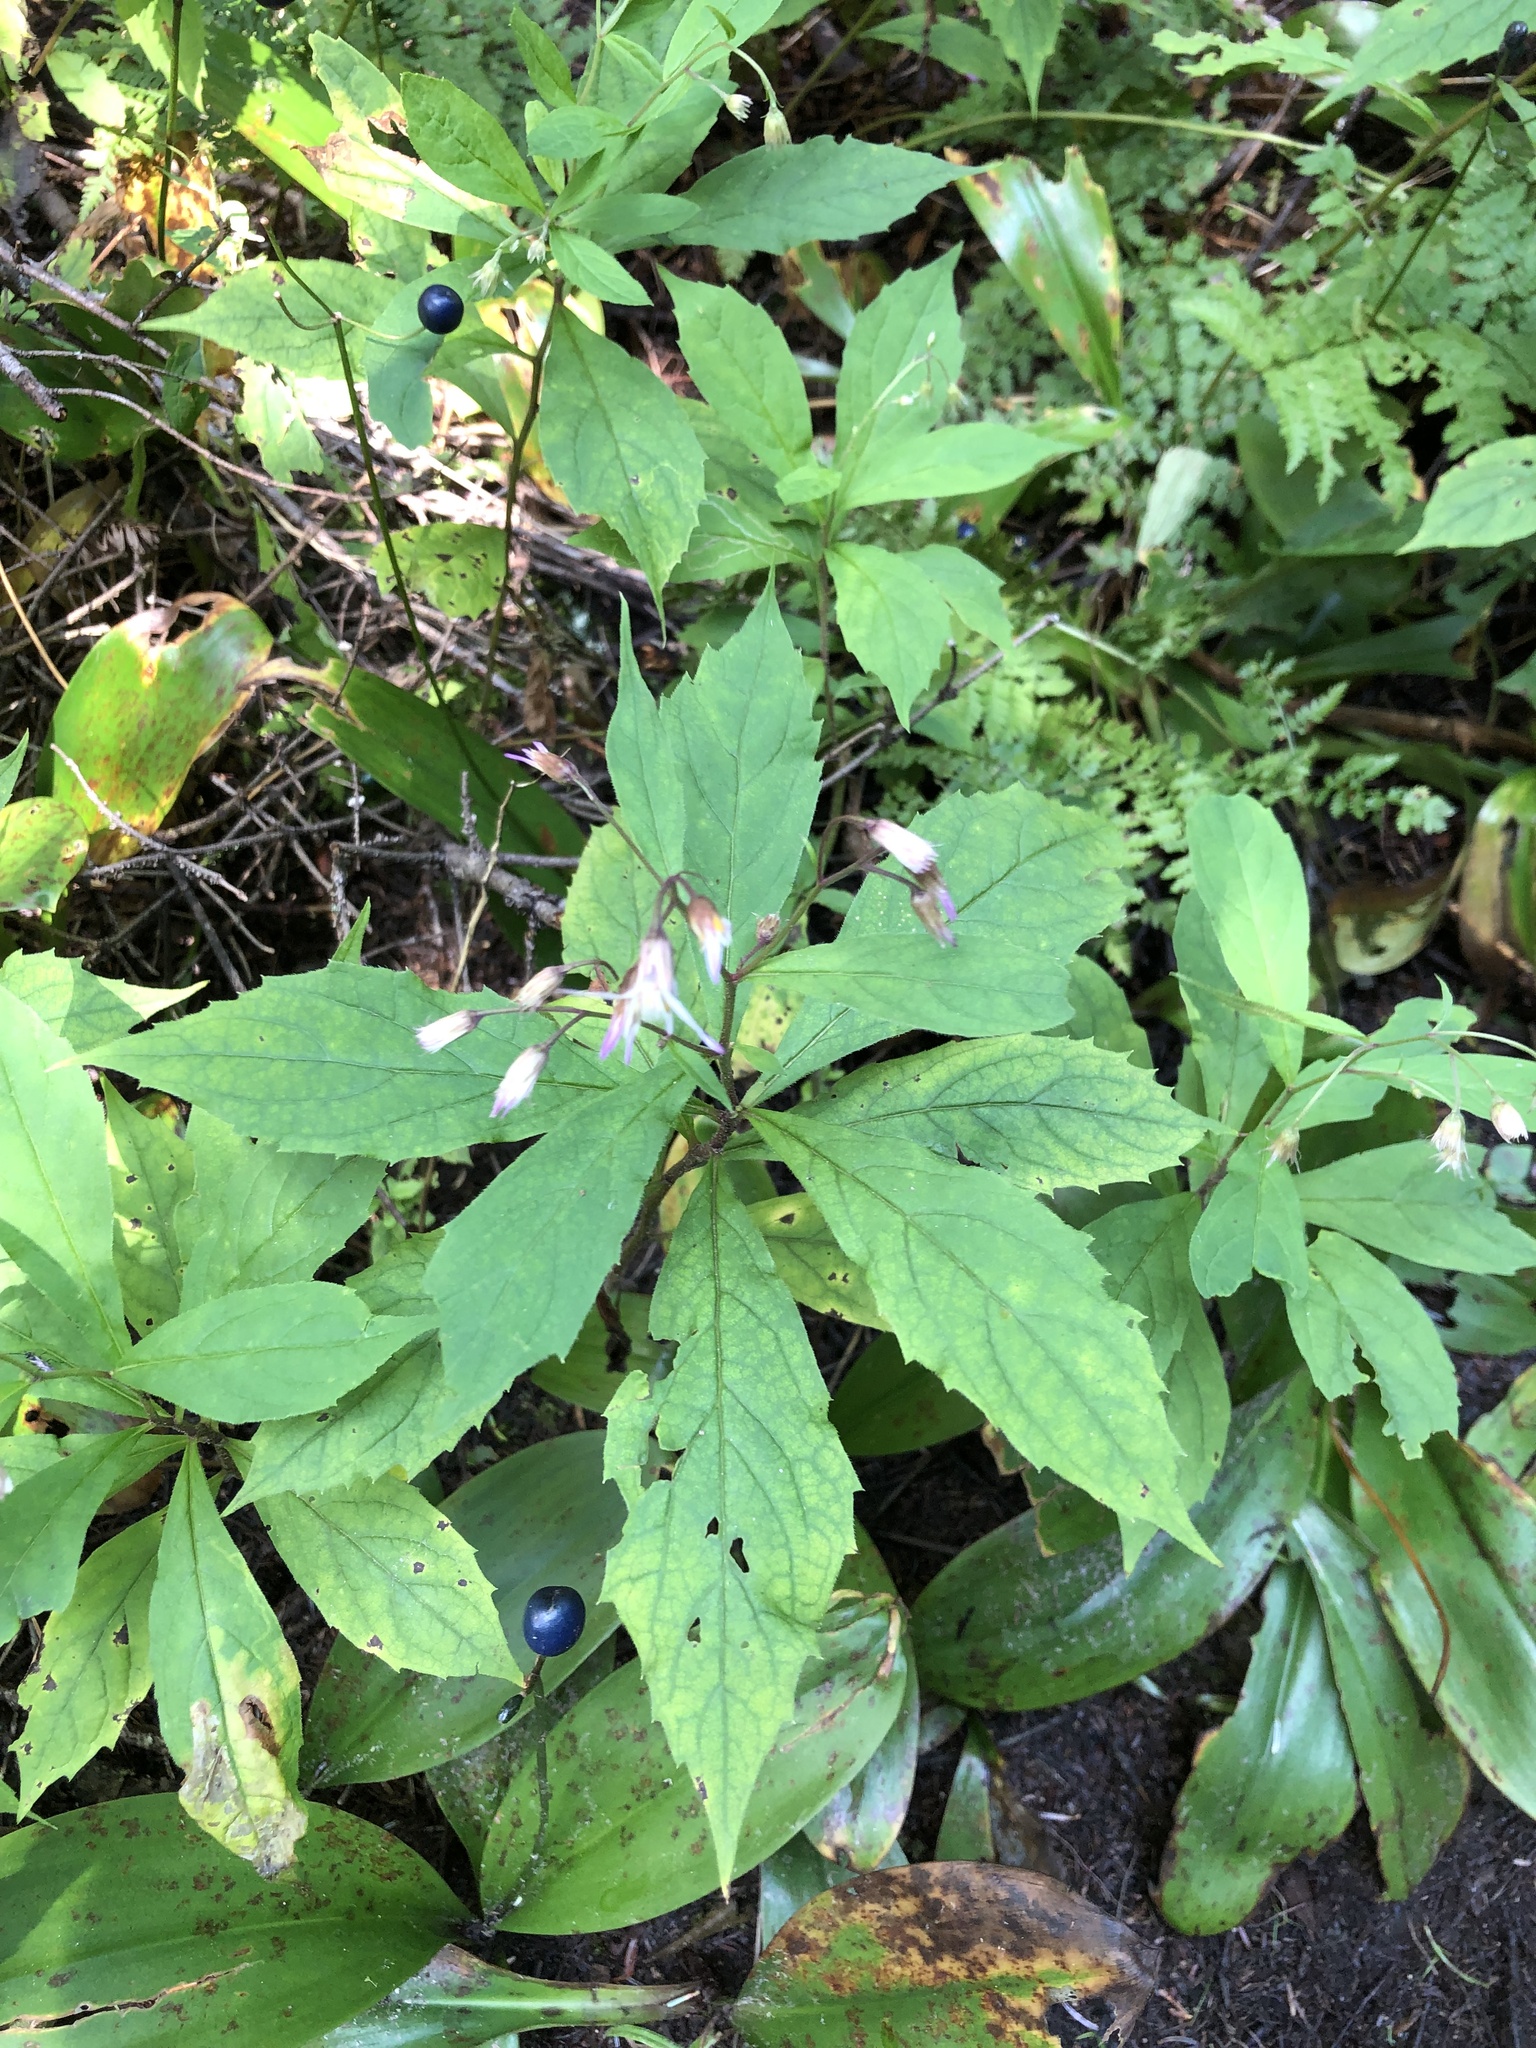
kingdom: Plantae
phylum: Tracheophyta
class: Magnoliopsida
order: Asterales
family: Asteraceae
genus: Oclemena
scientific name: Oclemena acuminata
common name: Mountain aster
